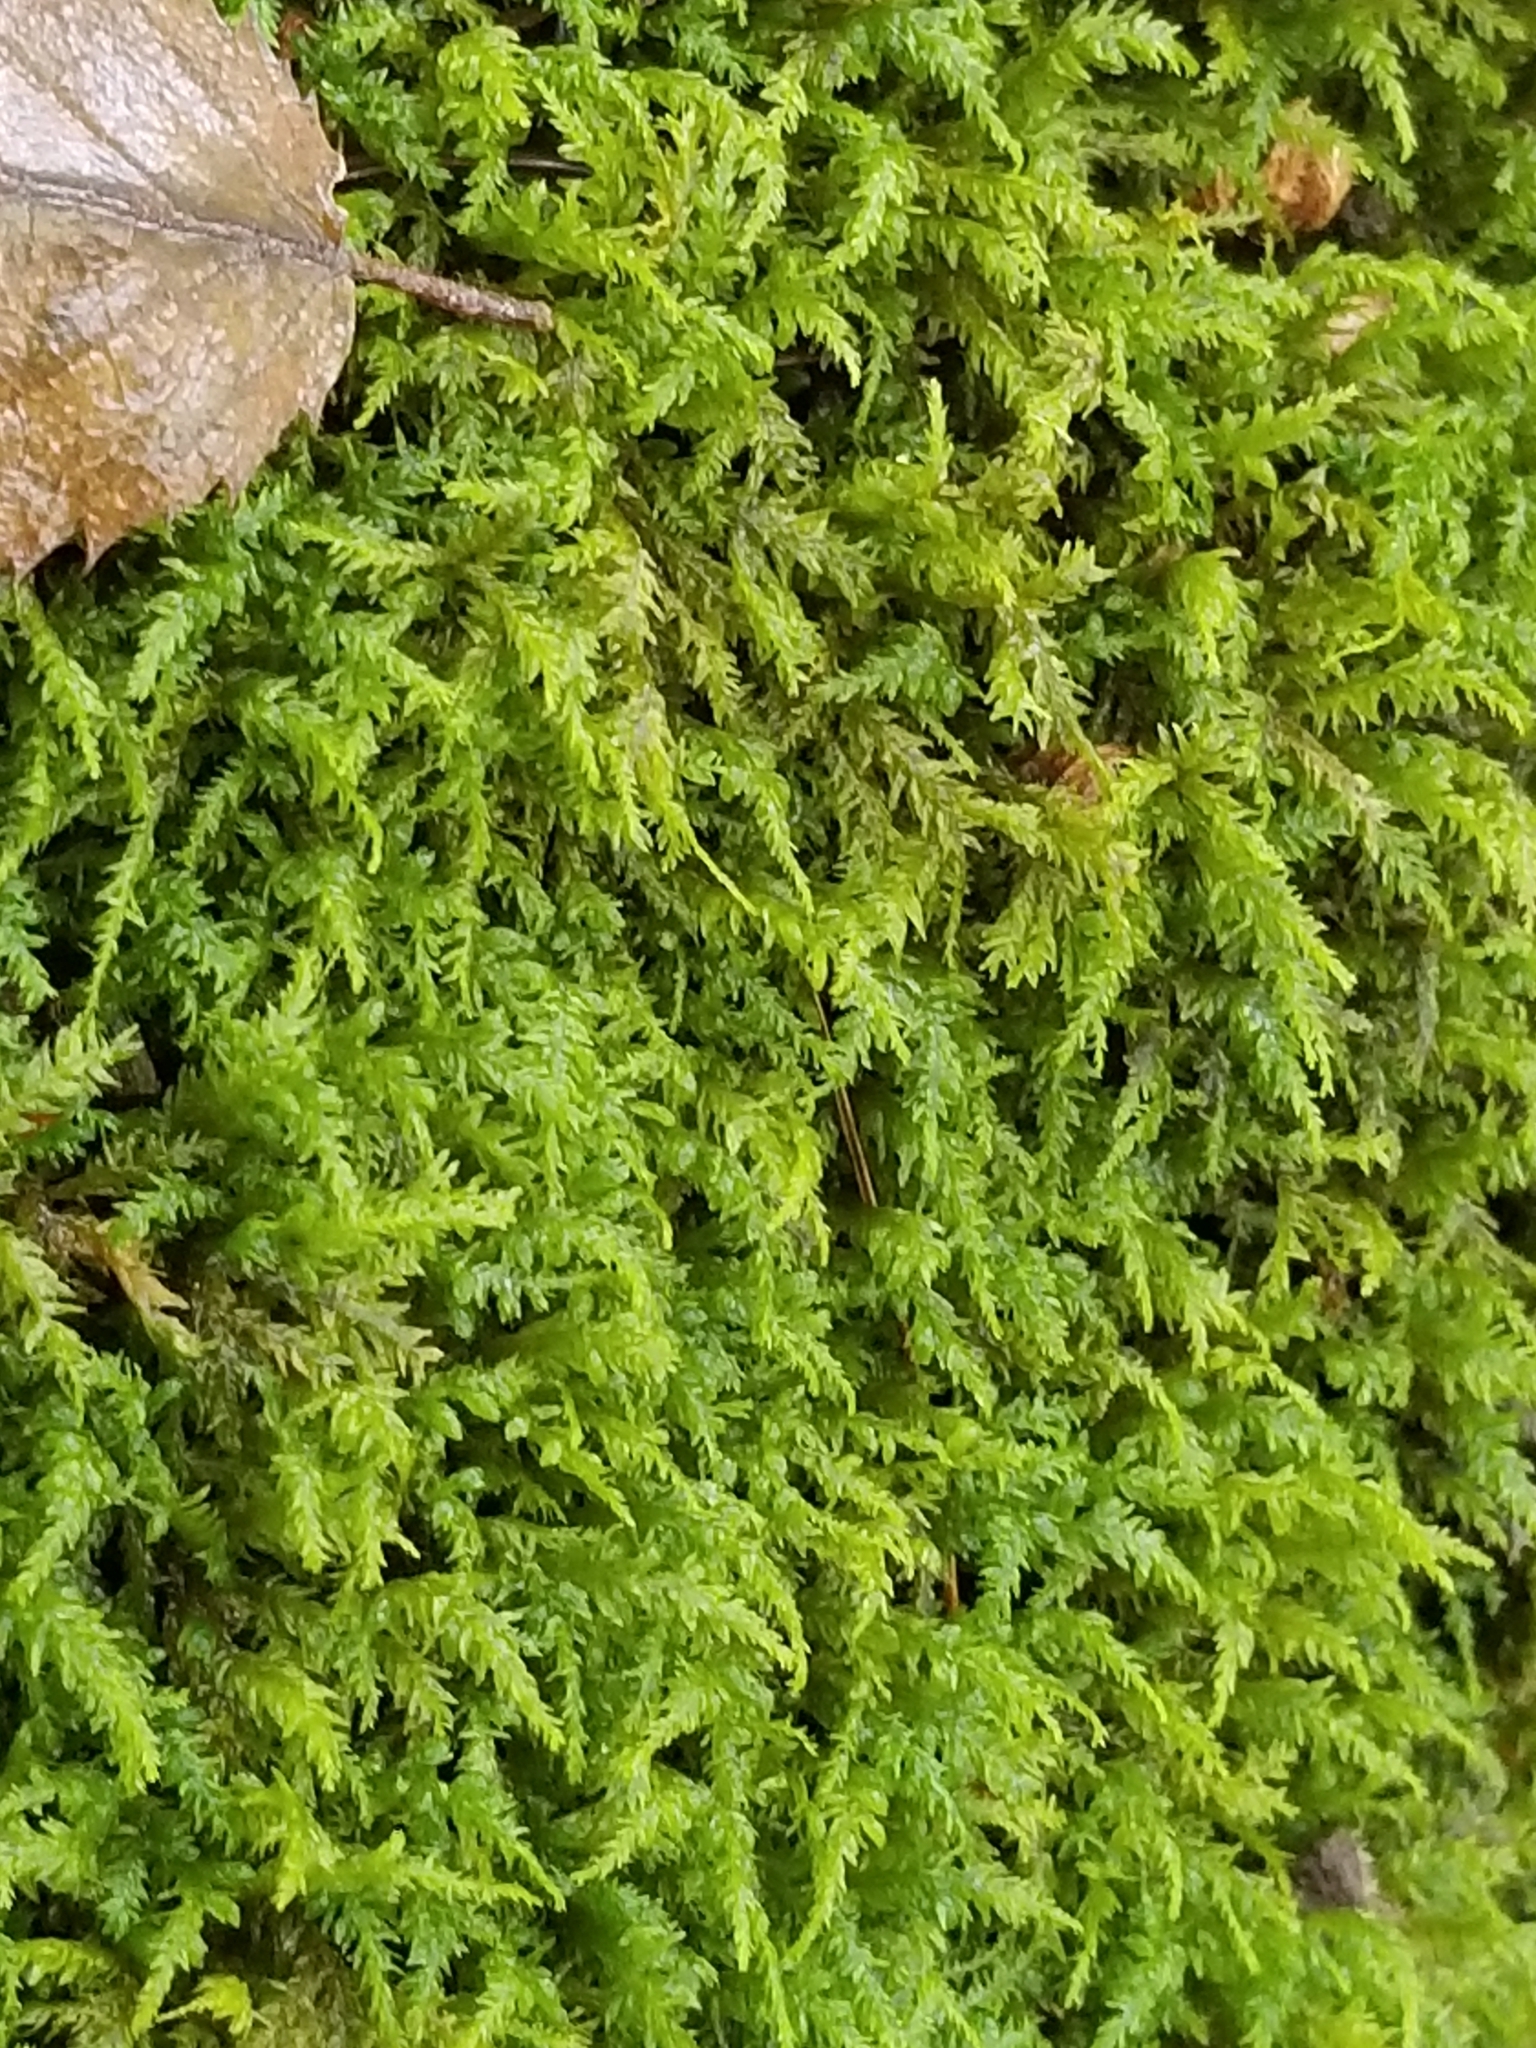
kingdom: Plantae
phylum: Bryophyta
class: Bryopsida
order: Hypnales
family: Neckeraceae
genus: Pseudanomodon
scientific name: Pseudanomodon attenuatus
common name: Tree-skirt moss
